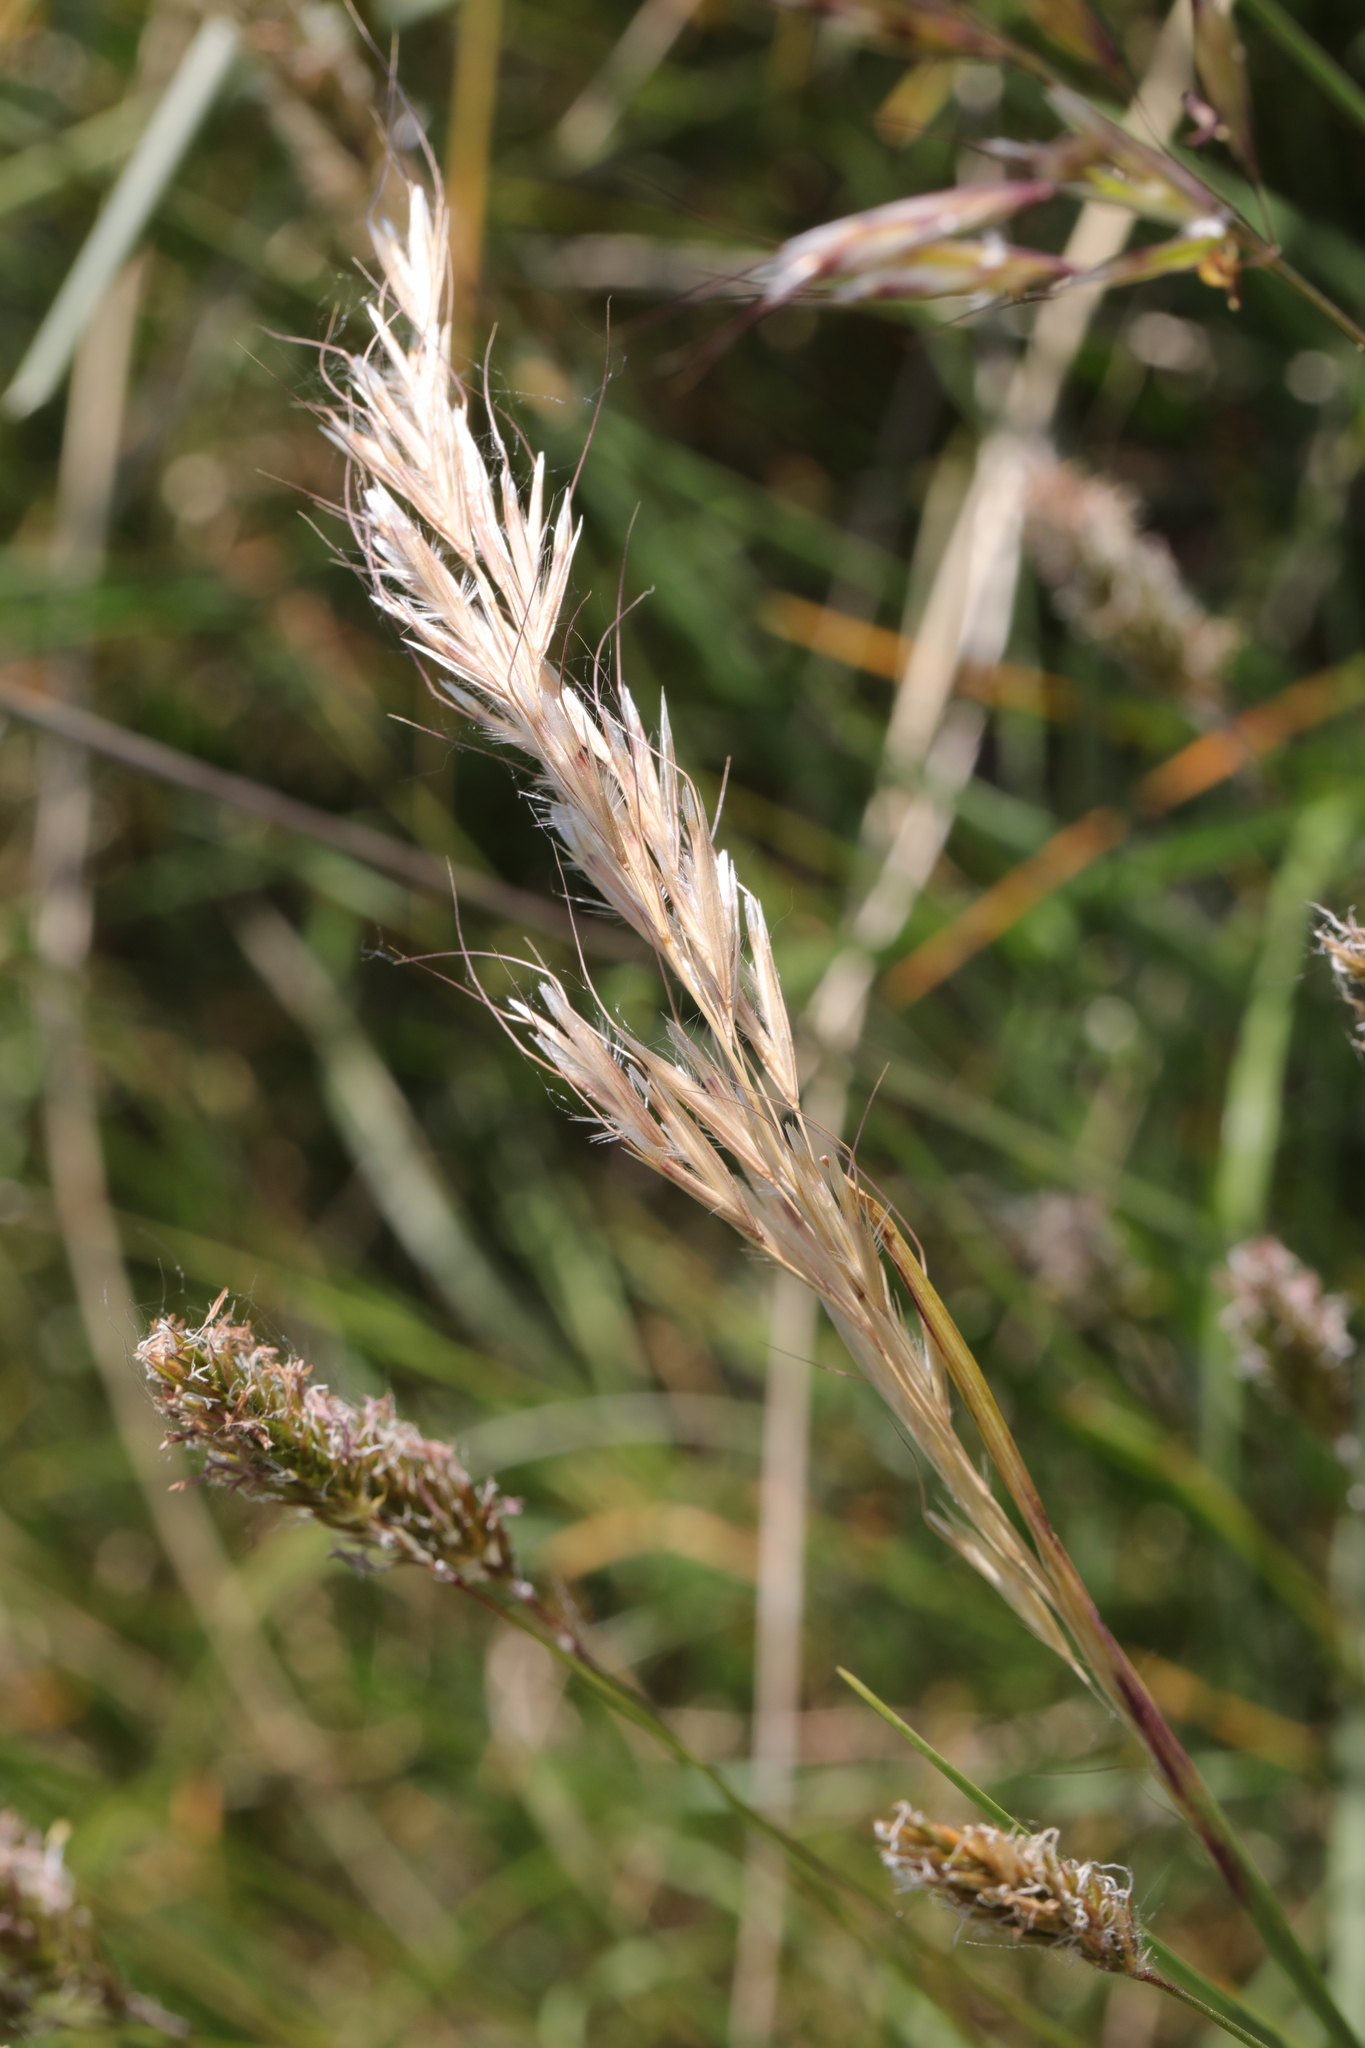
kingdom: Plantae
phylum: Tracheophyta
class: Liliopsida
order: Poales
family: Poaceae
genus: Anthoxanthum
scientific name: Anthoxanthum odoratum
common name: Sweet vernalgrass
